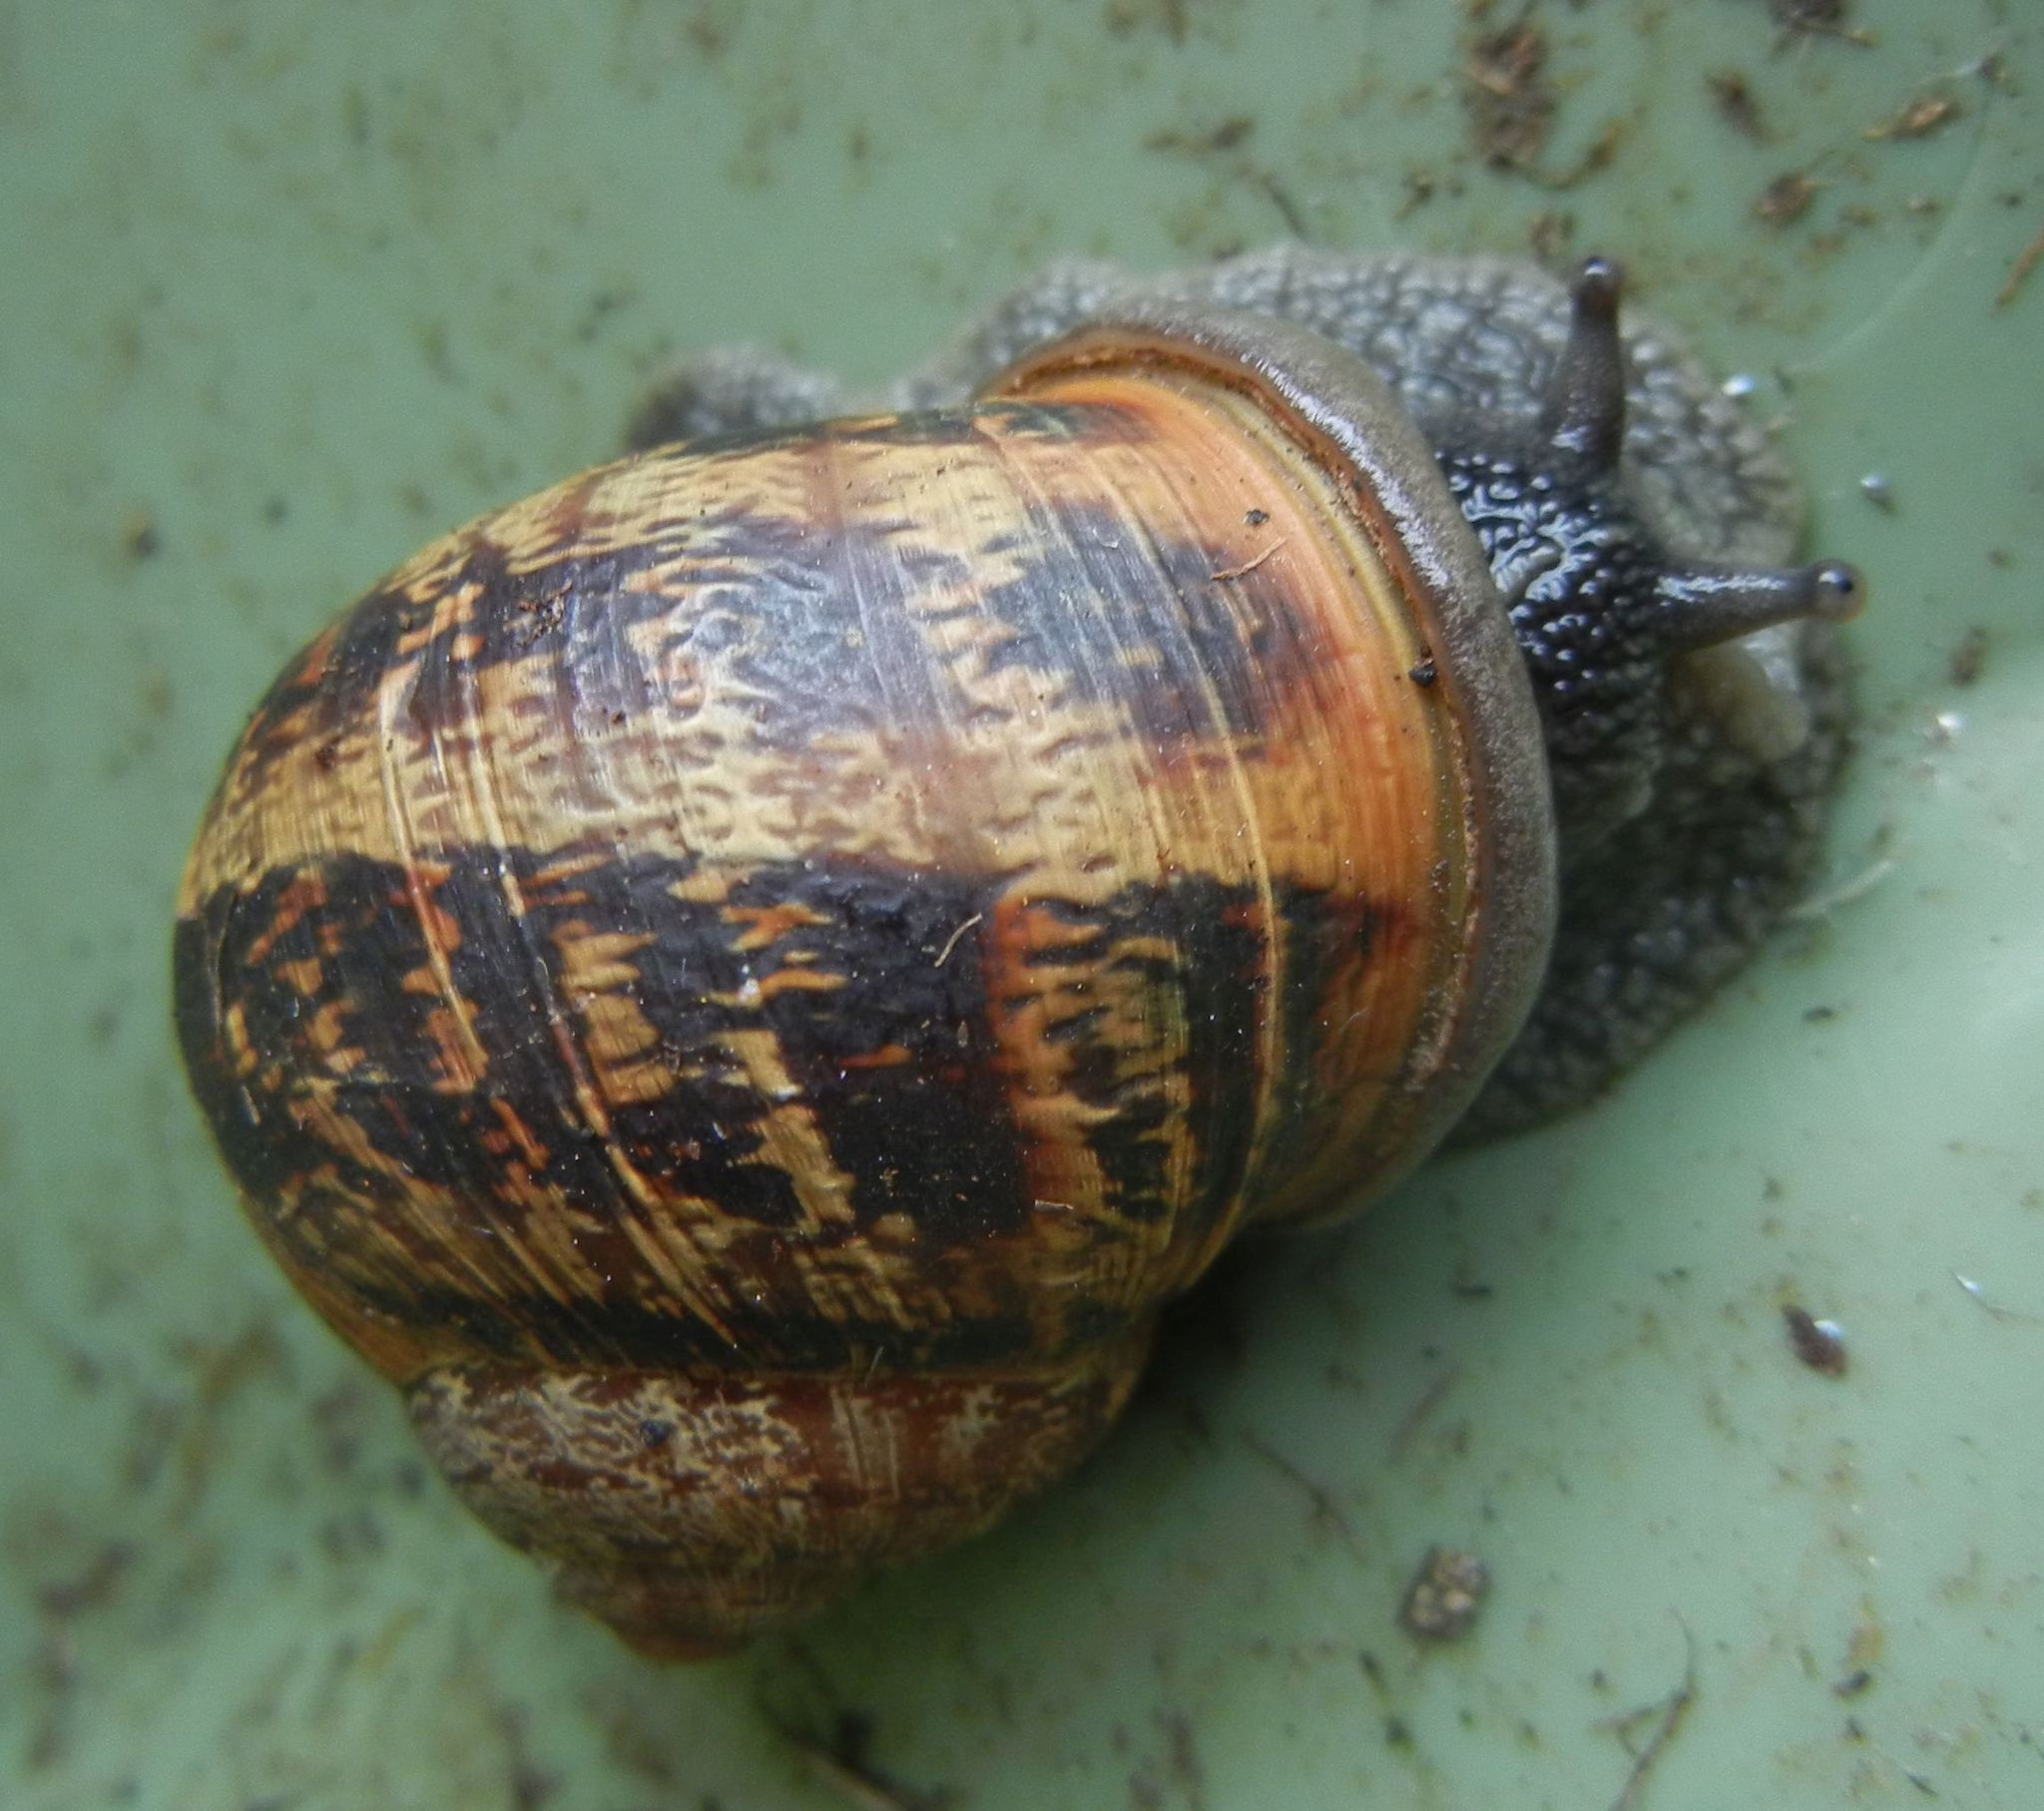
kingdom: Animalia
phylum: Mollusca
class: Gastropoda
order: Stylommatophora
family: Helicidae
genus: Cornu
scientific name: Cornu aspersum
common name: Brown garden snail
